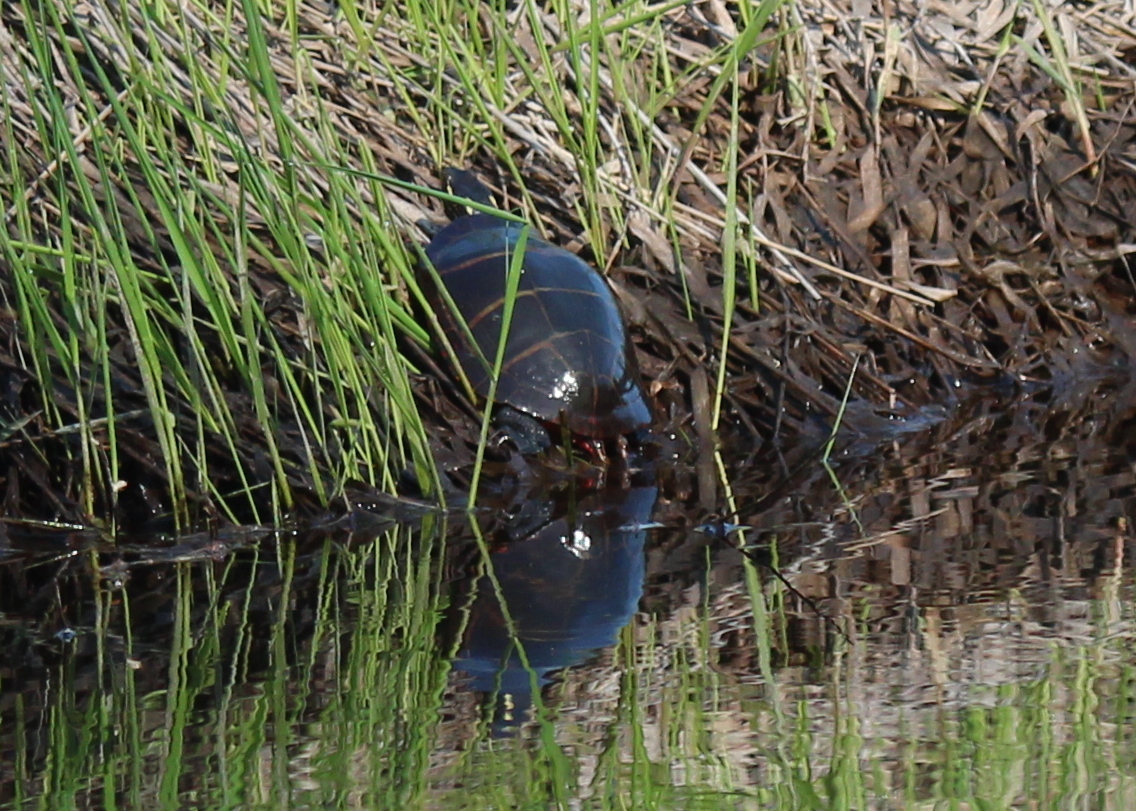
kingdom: Animalia
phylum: Chordata
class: Testudines
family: Emydidae
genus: Chrysemys
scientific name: Chrysemys picta
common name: Painted turtle
